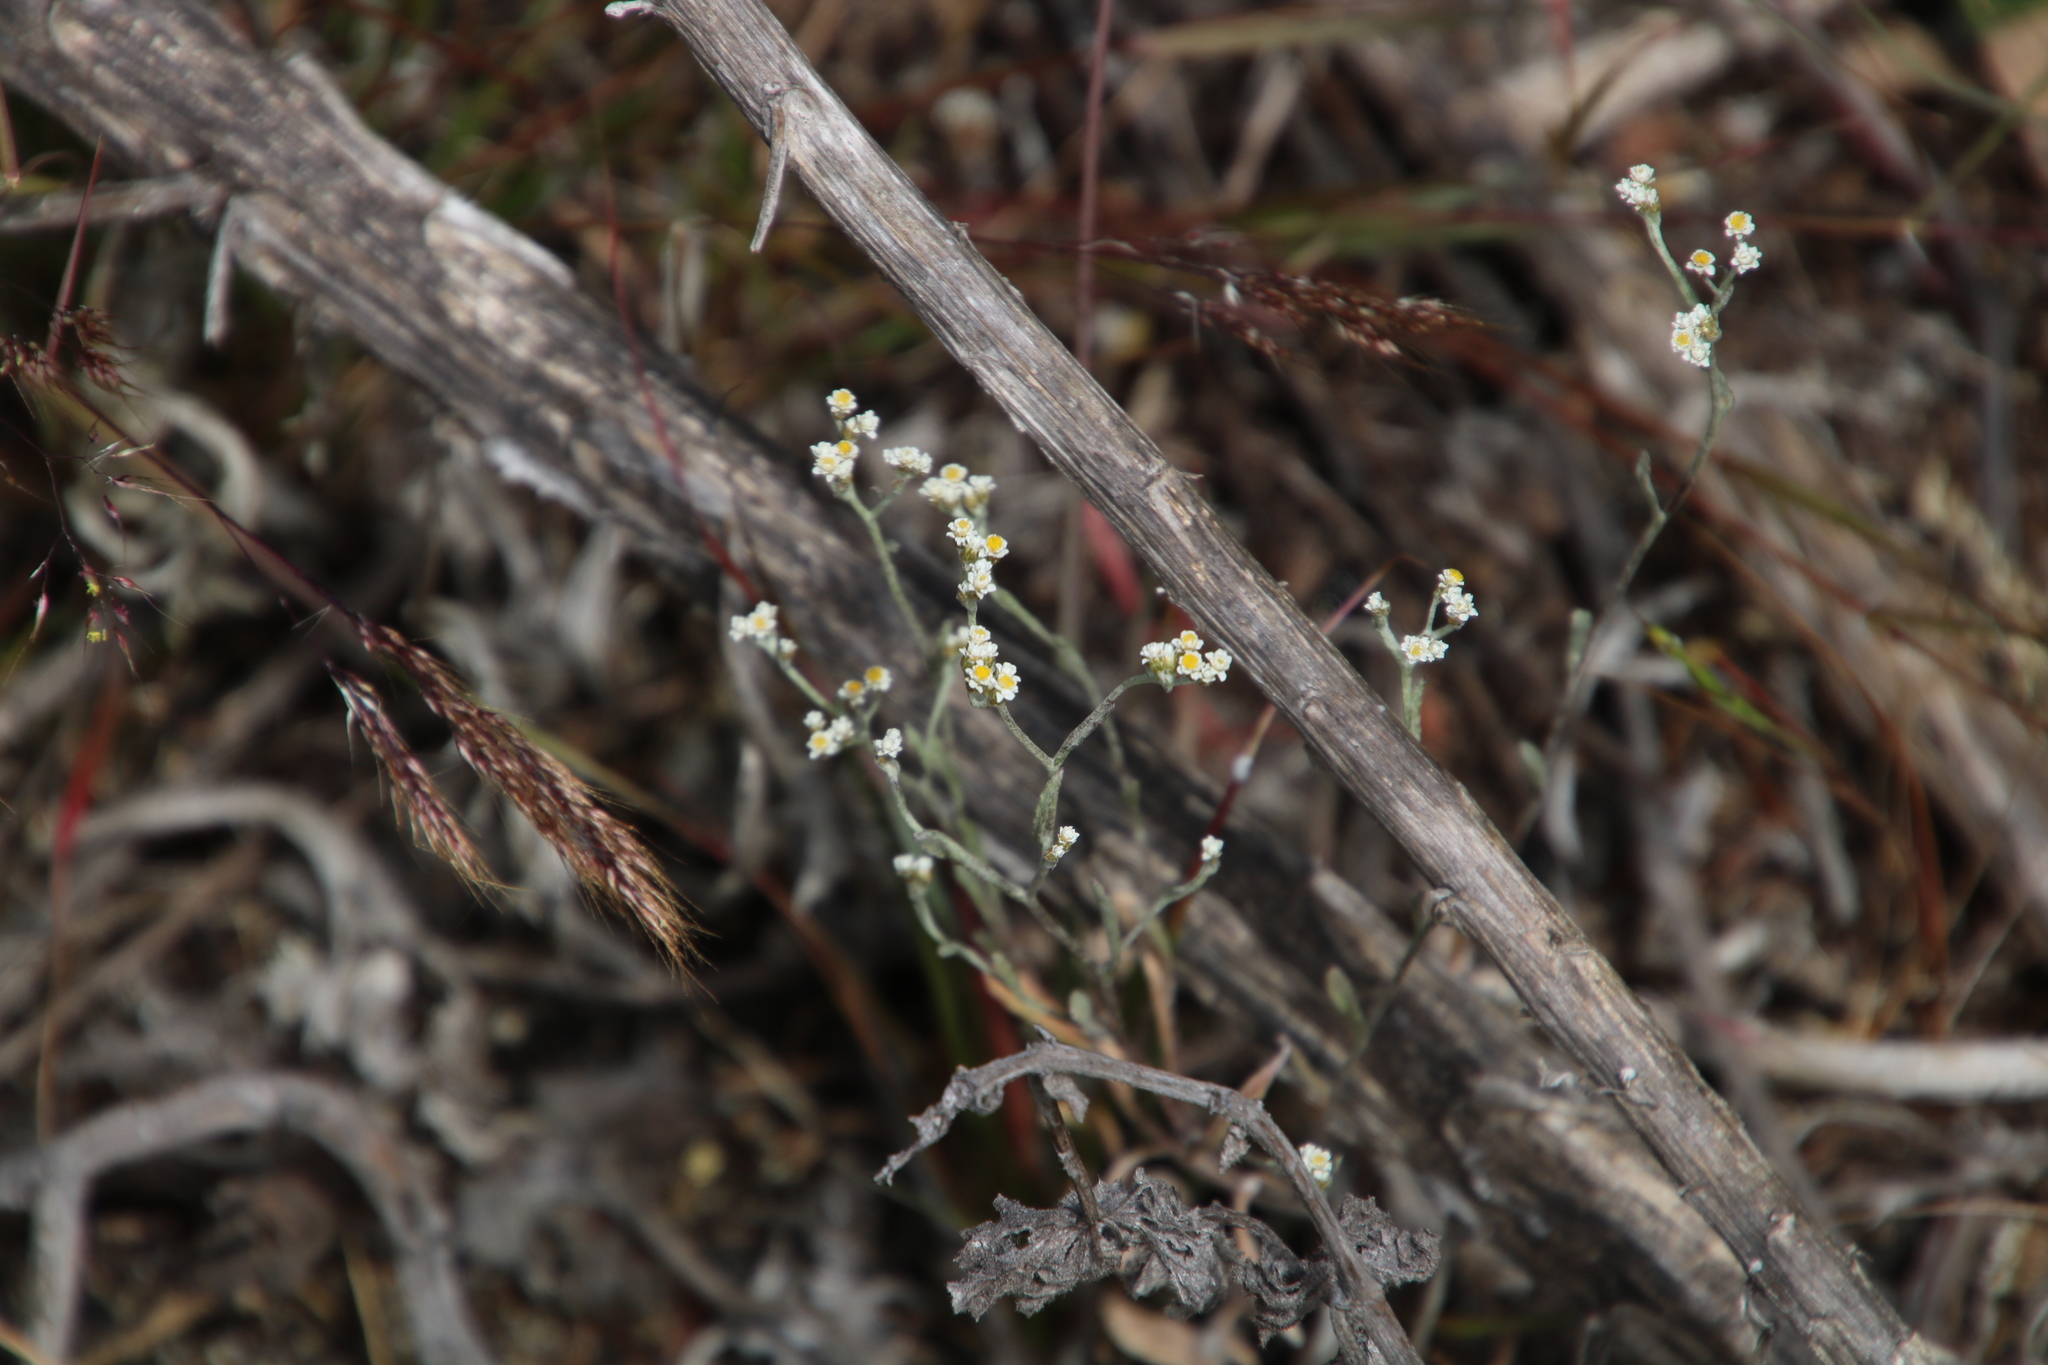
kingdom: Plantae
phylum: Tracheophyta
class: Magnoliopsida
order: Asterales
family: Asteraceae
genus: Helichrysum
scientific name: Helichrysum indicum
